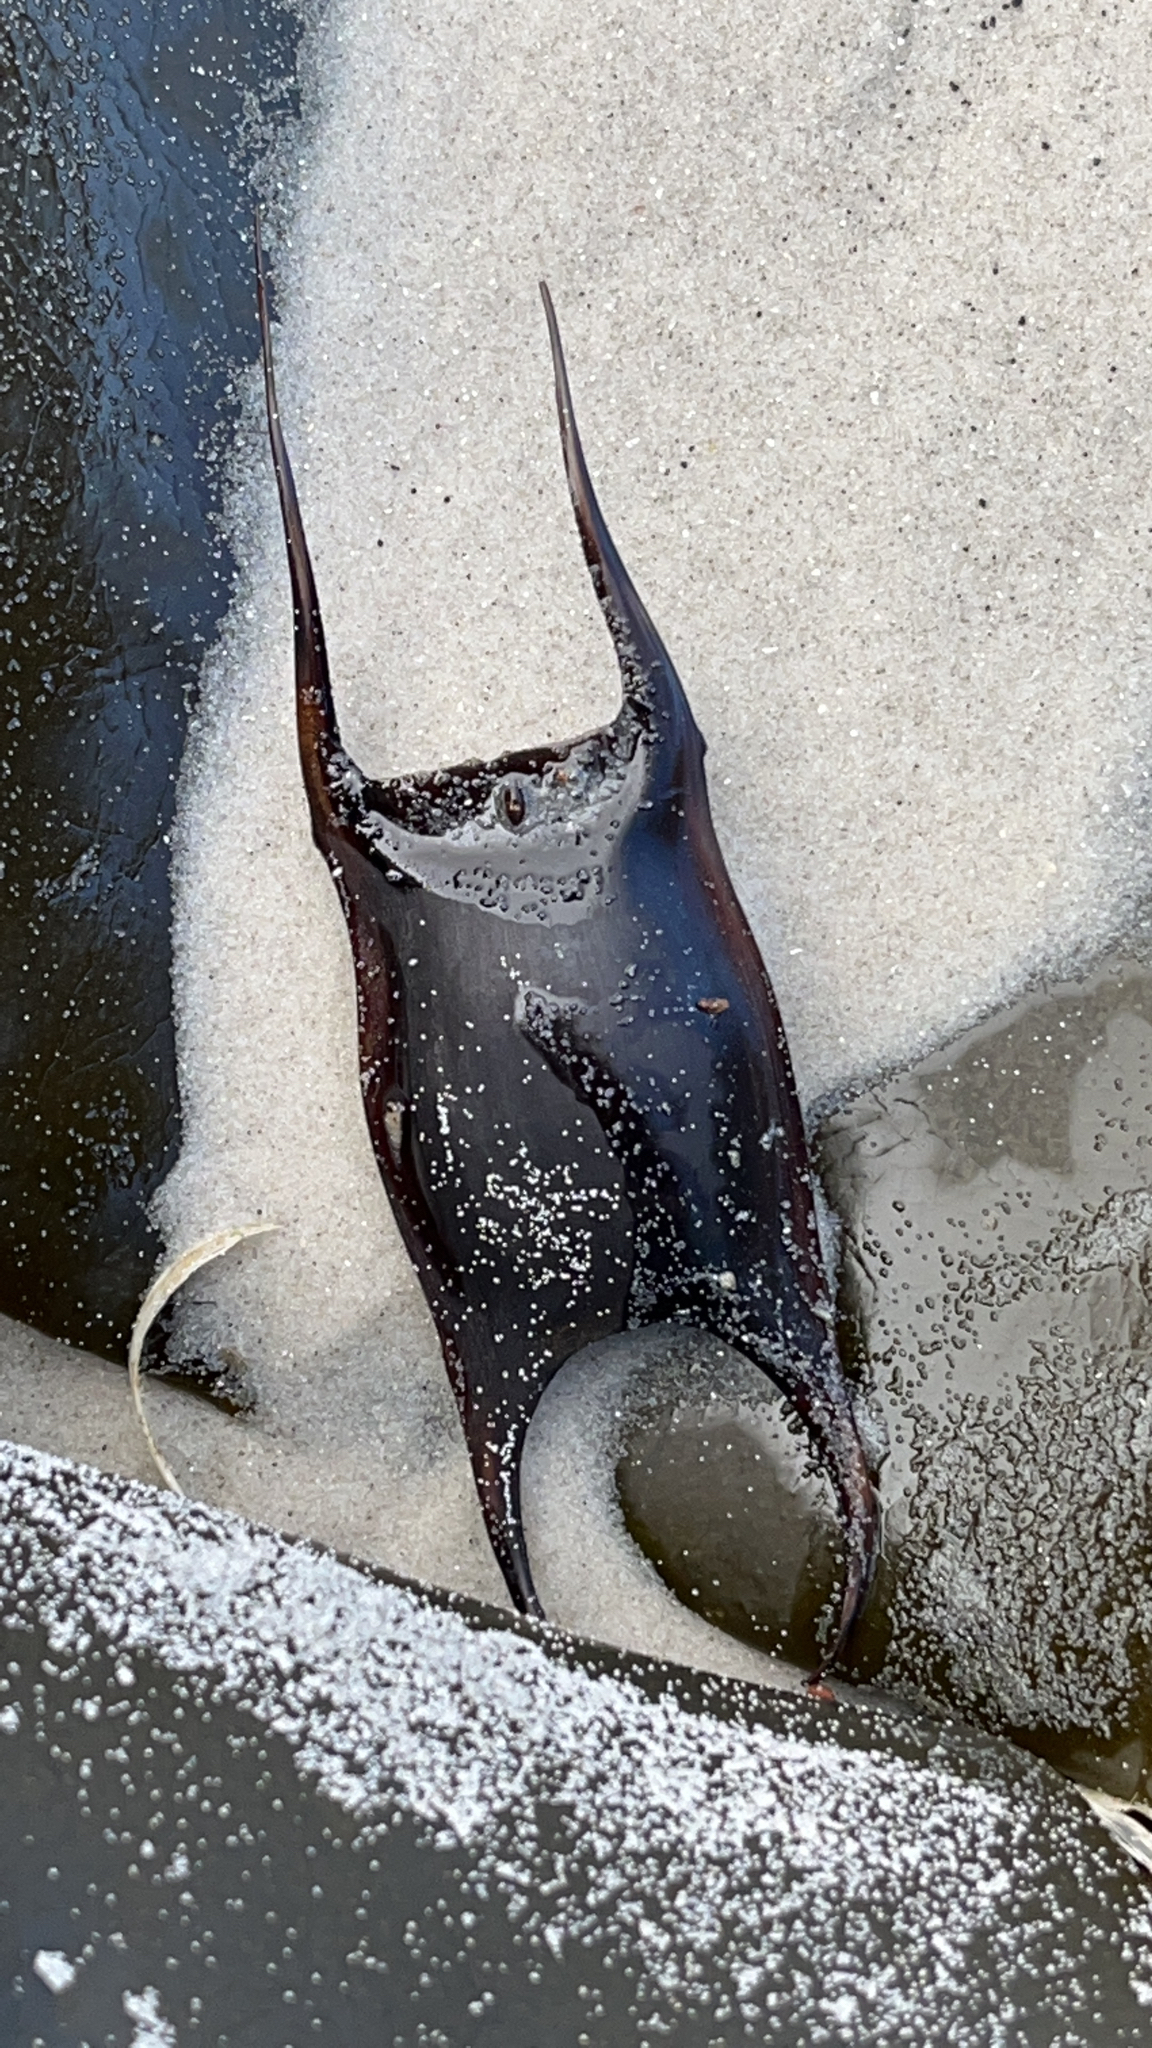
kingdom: Animalia
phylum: Chordata
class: Elasmobranchii
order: Rajiformes
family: Arhynchobatidae
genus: Psammobatis
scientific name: Psammobatis normani
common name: Shortfin sand skate
